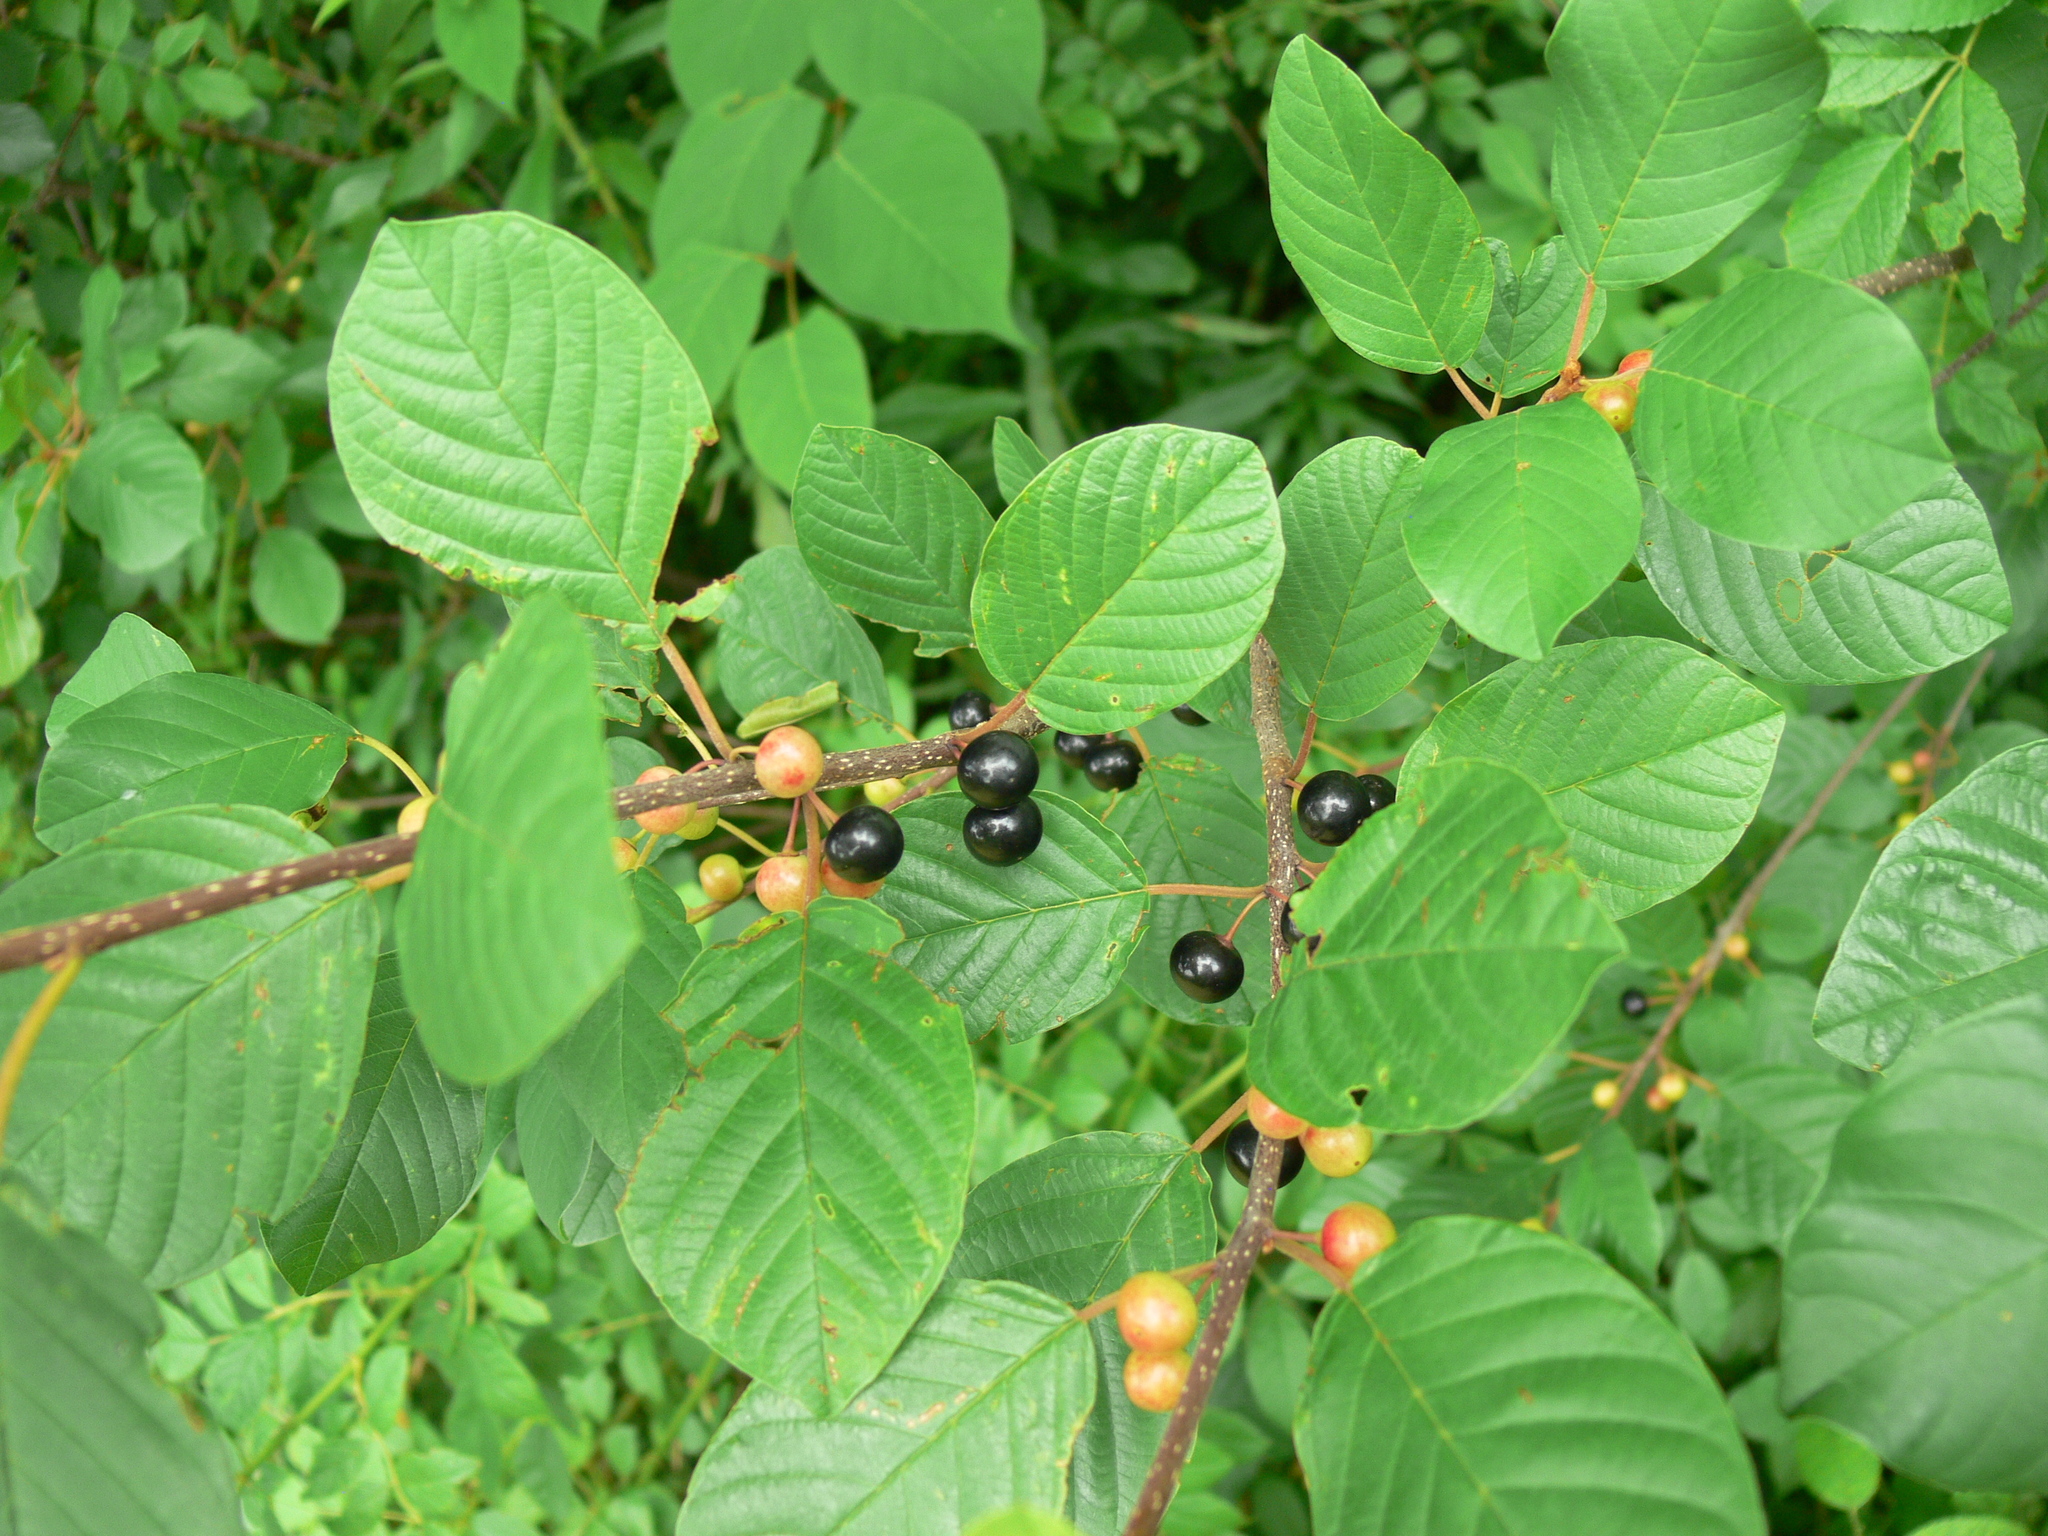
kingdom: Plantae
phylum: Tracheophyta
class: Magnoliopsida
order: Rosales
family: Rhamnaceae
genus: Frangula
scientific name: Frangula alnus
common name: Alder buckthorn
